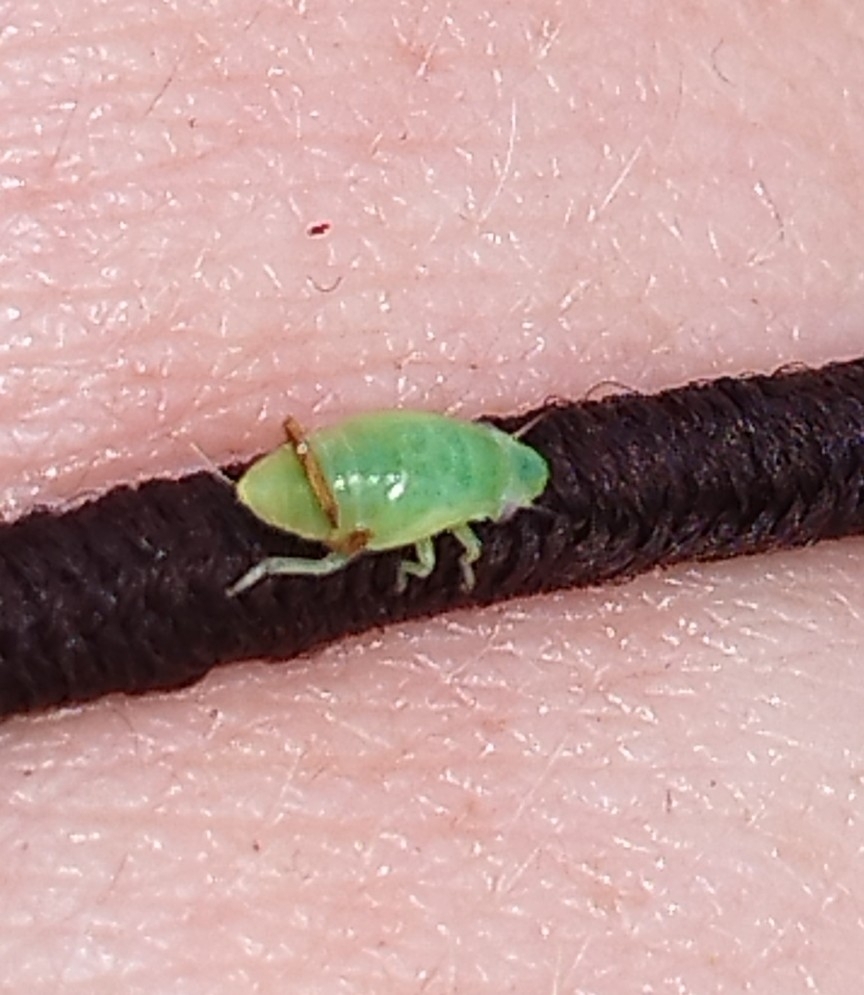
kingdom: Animalia
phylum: Arthropoda
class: Insecta
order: Hemiptera
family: Aphrophoridae
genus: Philaenus
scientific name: Philaenus spumarius
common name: Meadow spittlebug
